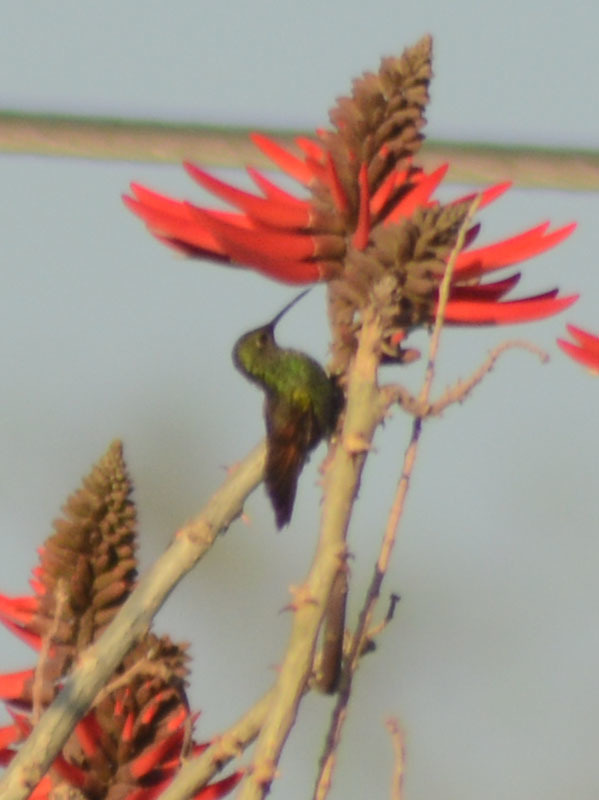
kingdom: Animalia
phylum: Chordata
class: Aves
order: Apodiformes
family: Trochilidae
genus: Saucerottia
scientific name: Saucerottia beryllina
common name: Berylline hummingbird
